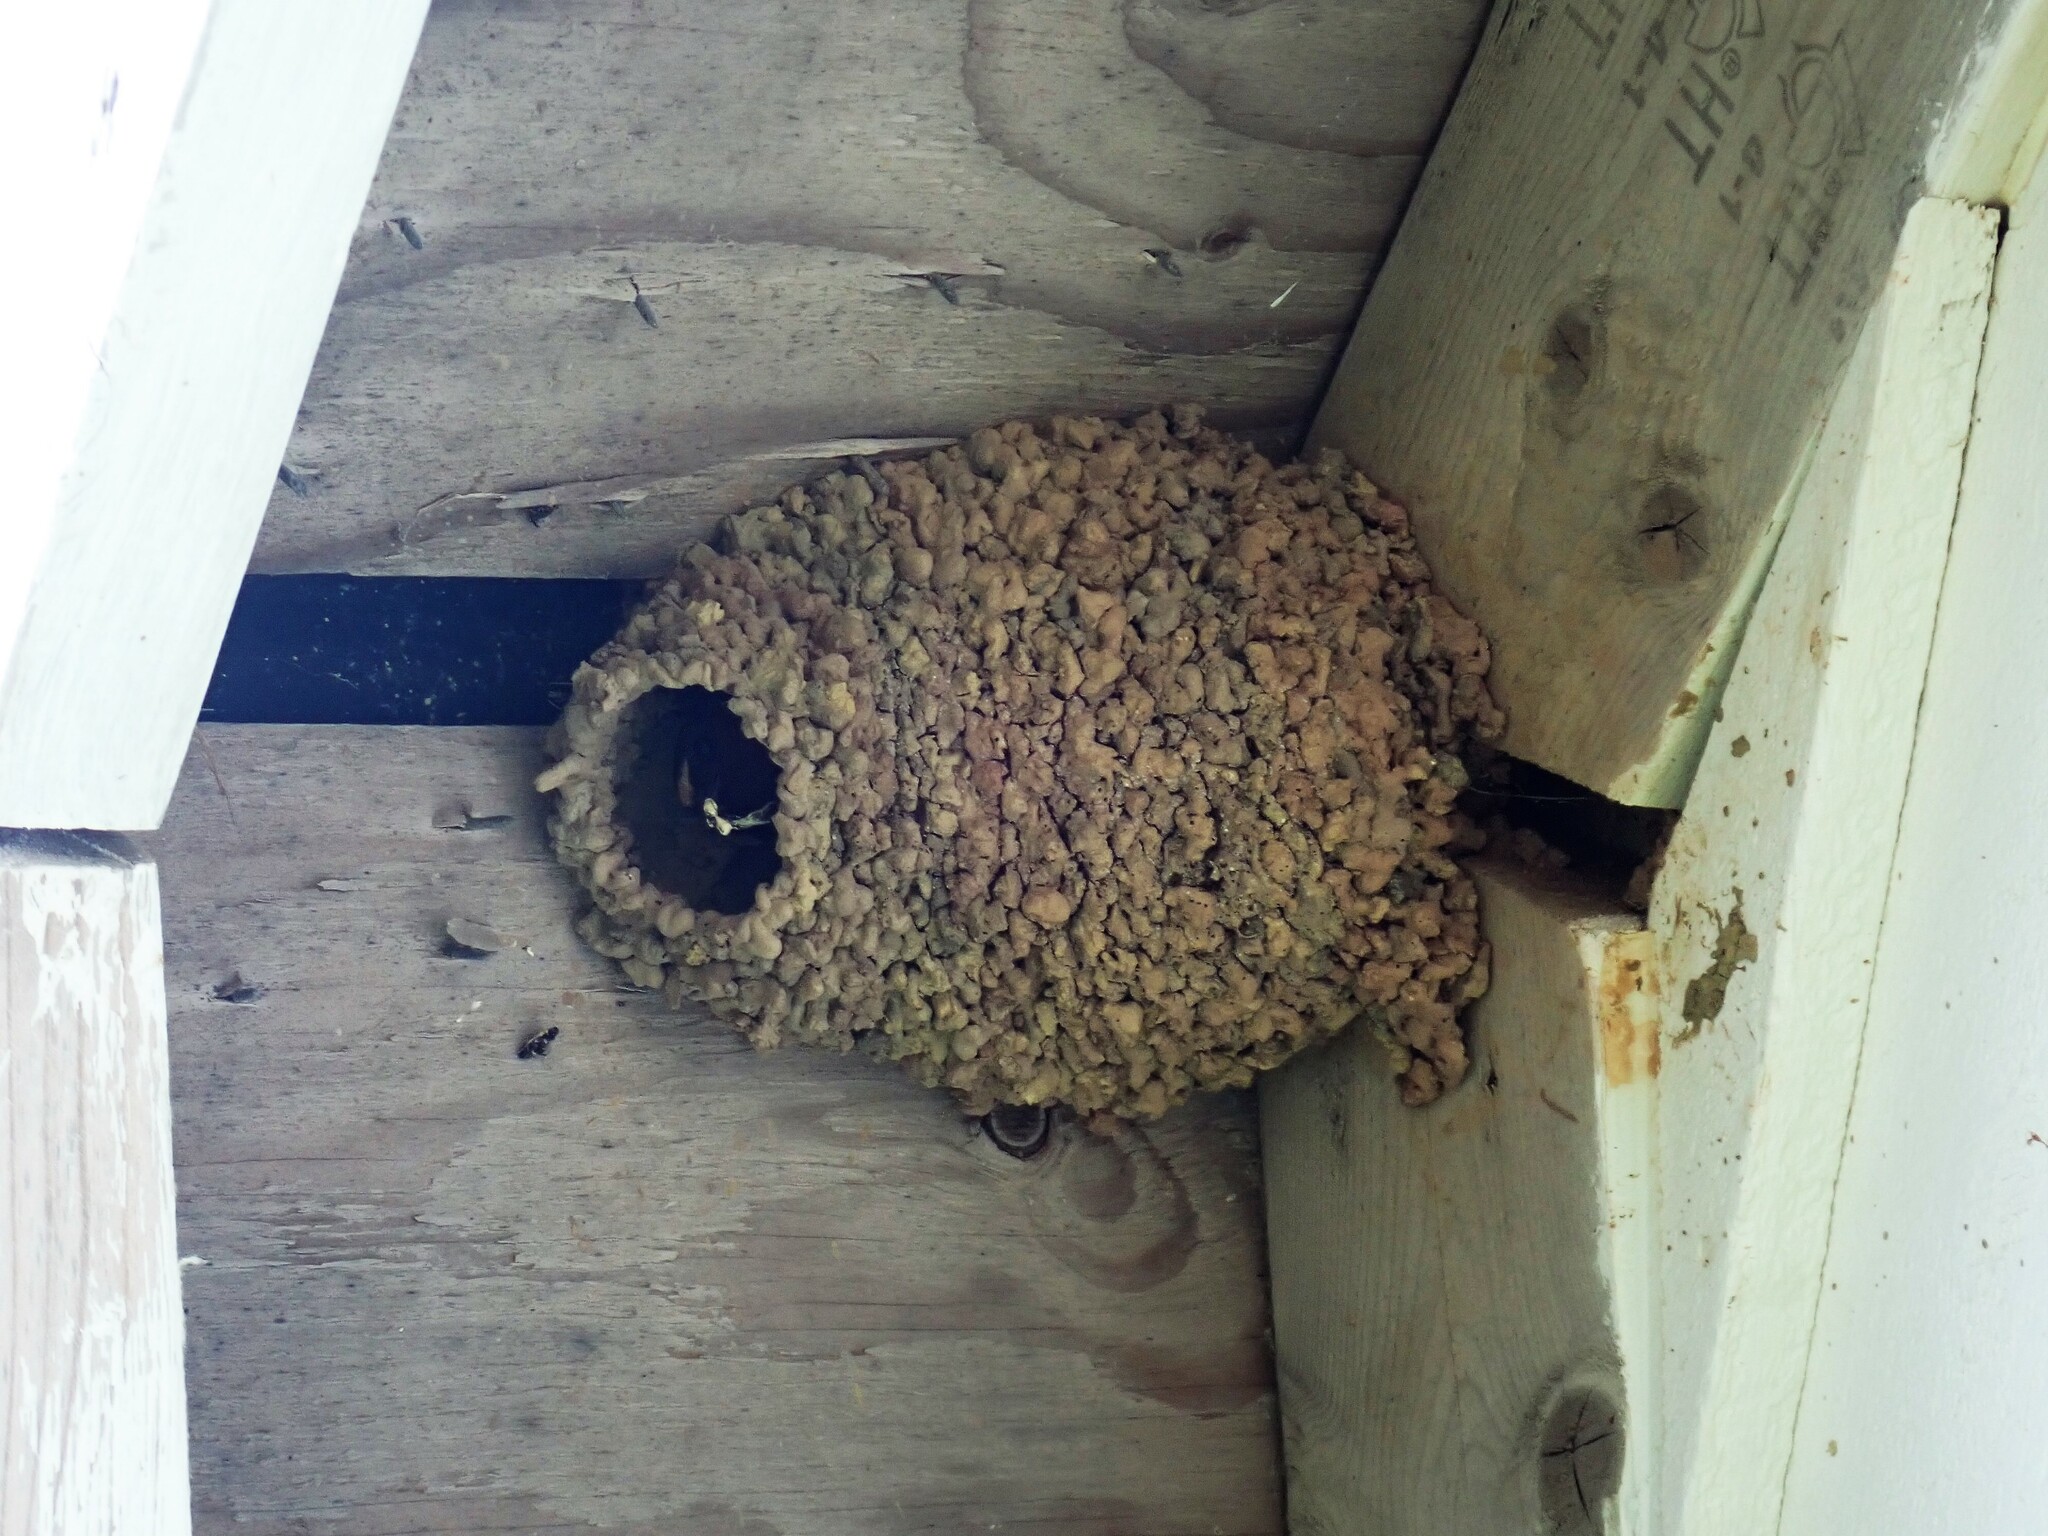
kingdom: Animalia
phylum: Chordata
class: Aves
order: Passeriformes
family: Hirundinidae
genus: Petrochelidon
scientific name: Petrochelidon pyrrhonota
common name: American cliff swallow
